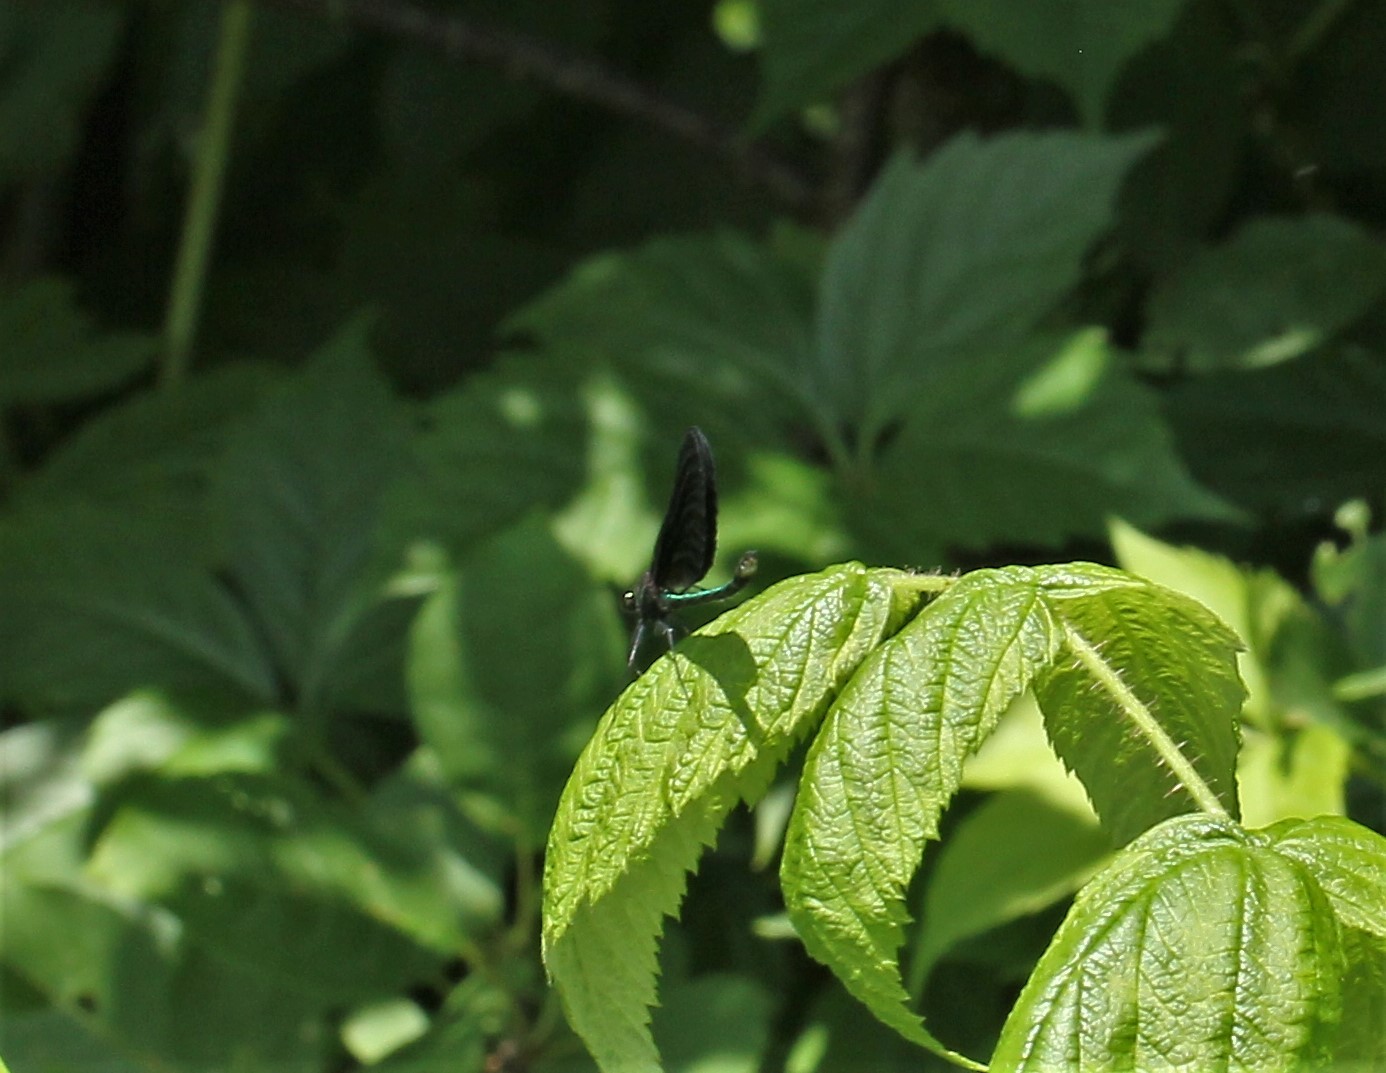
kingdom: Animalia
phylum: Arthropoda
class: Insecta
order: Odonata
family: Calopterygidae
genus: Calopteryx
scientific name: Calopteryx maculata
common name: Ebony jewelwing
